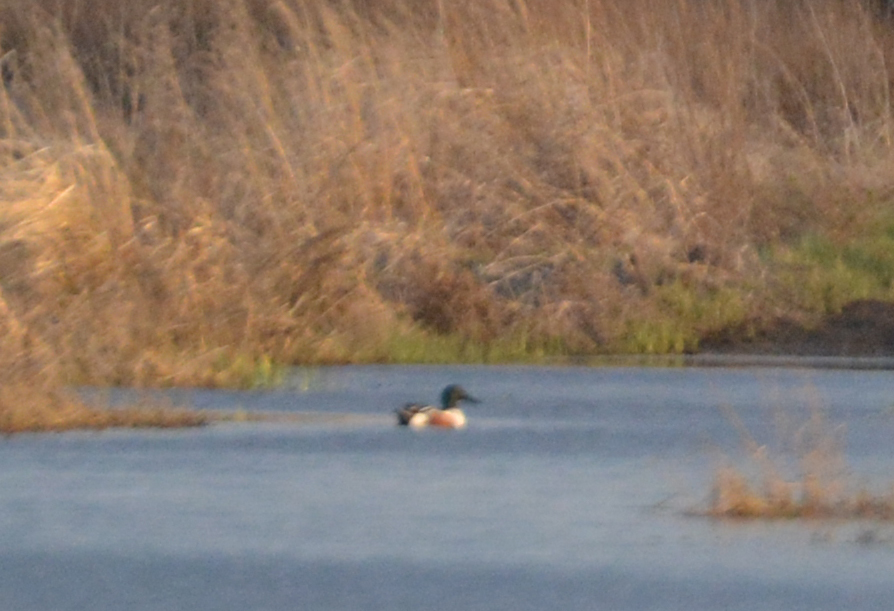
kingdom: Animalia
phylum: Chordata
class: Aves
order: Anseriformes
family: Anatidae
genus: Spatula
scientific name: Spatula clypeata
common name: Northern shoveler
